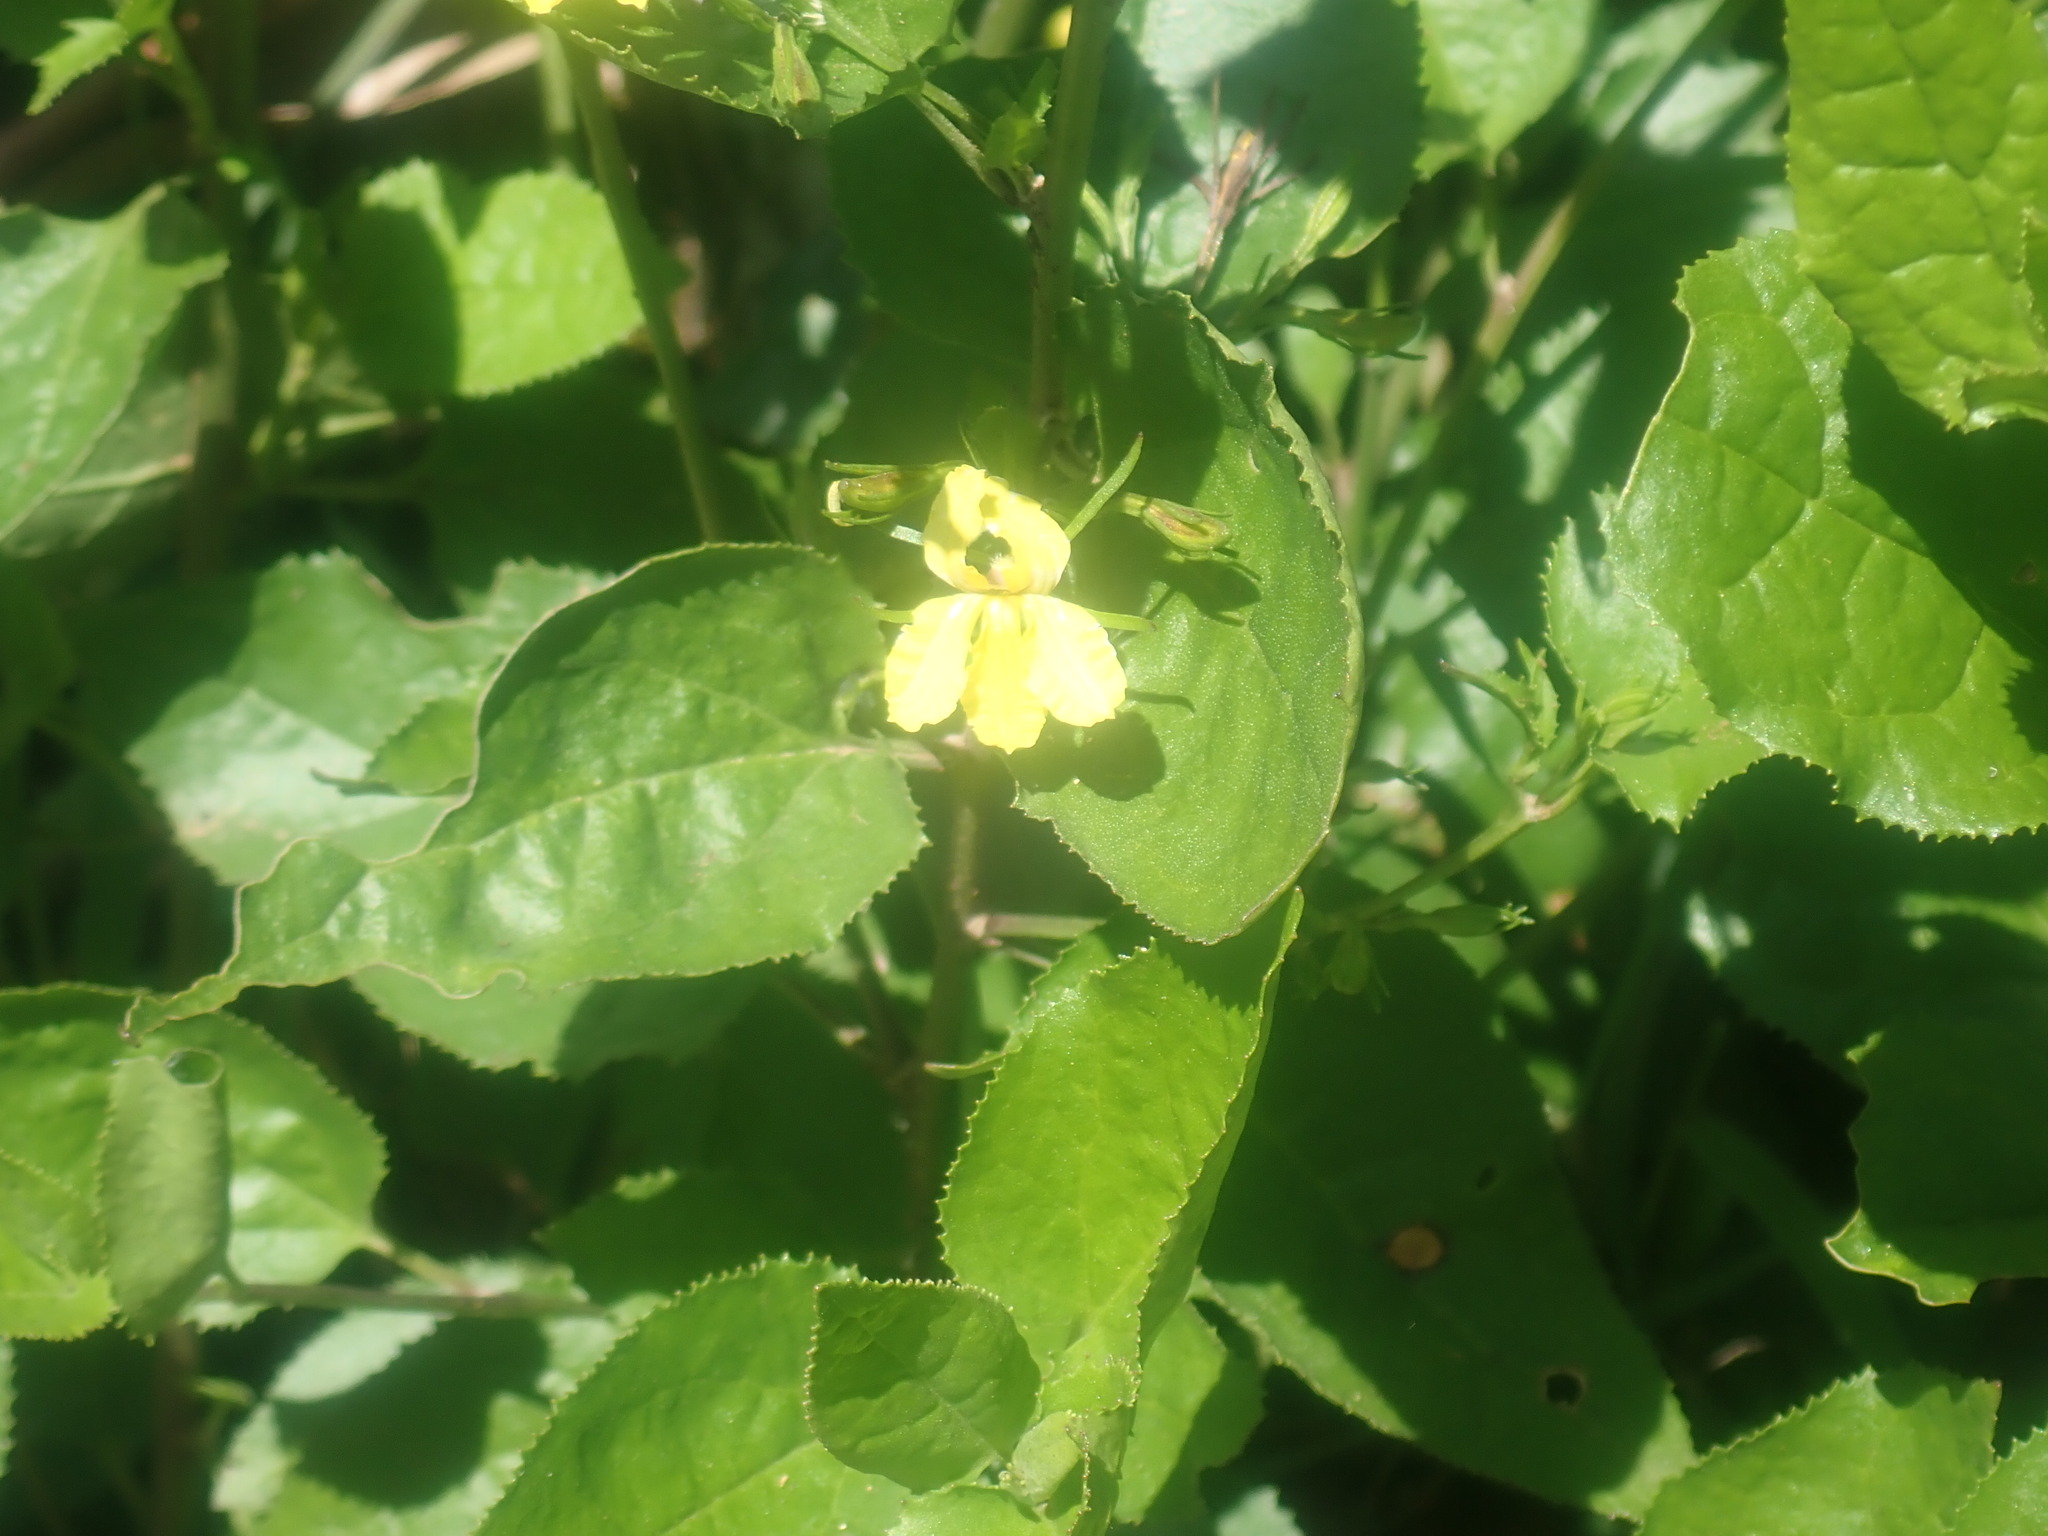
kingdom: Plantae
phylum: Tracheophyta
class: Magnoliopsida
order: Asterales
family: Goodeniaceae
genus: Goodenia
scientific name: Goodenia ovata
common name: Hop goodenia
